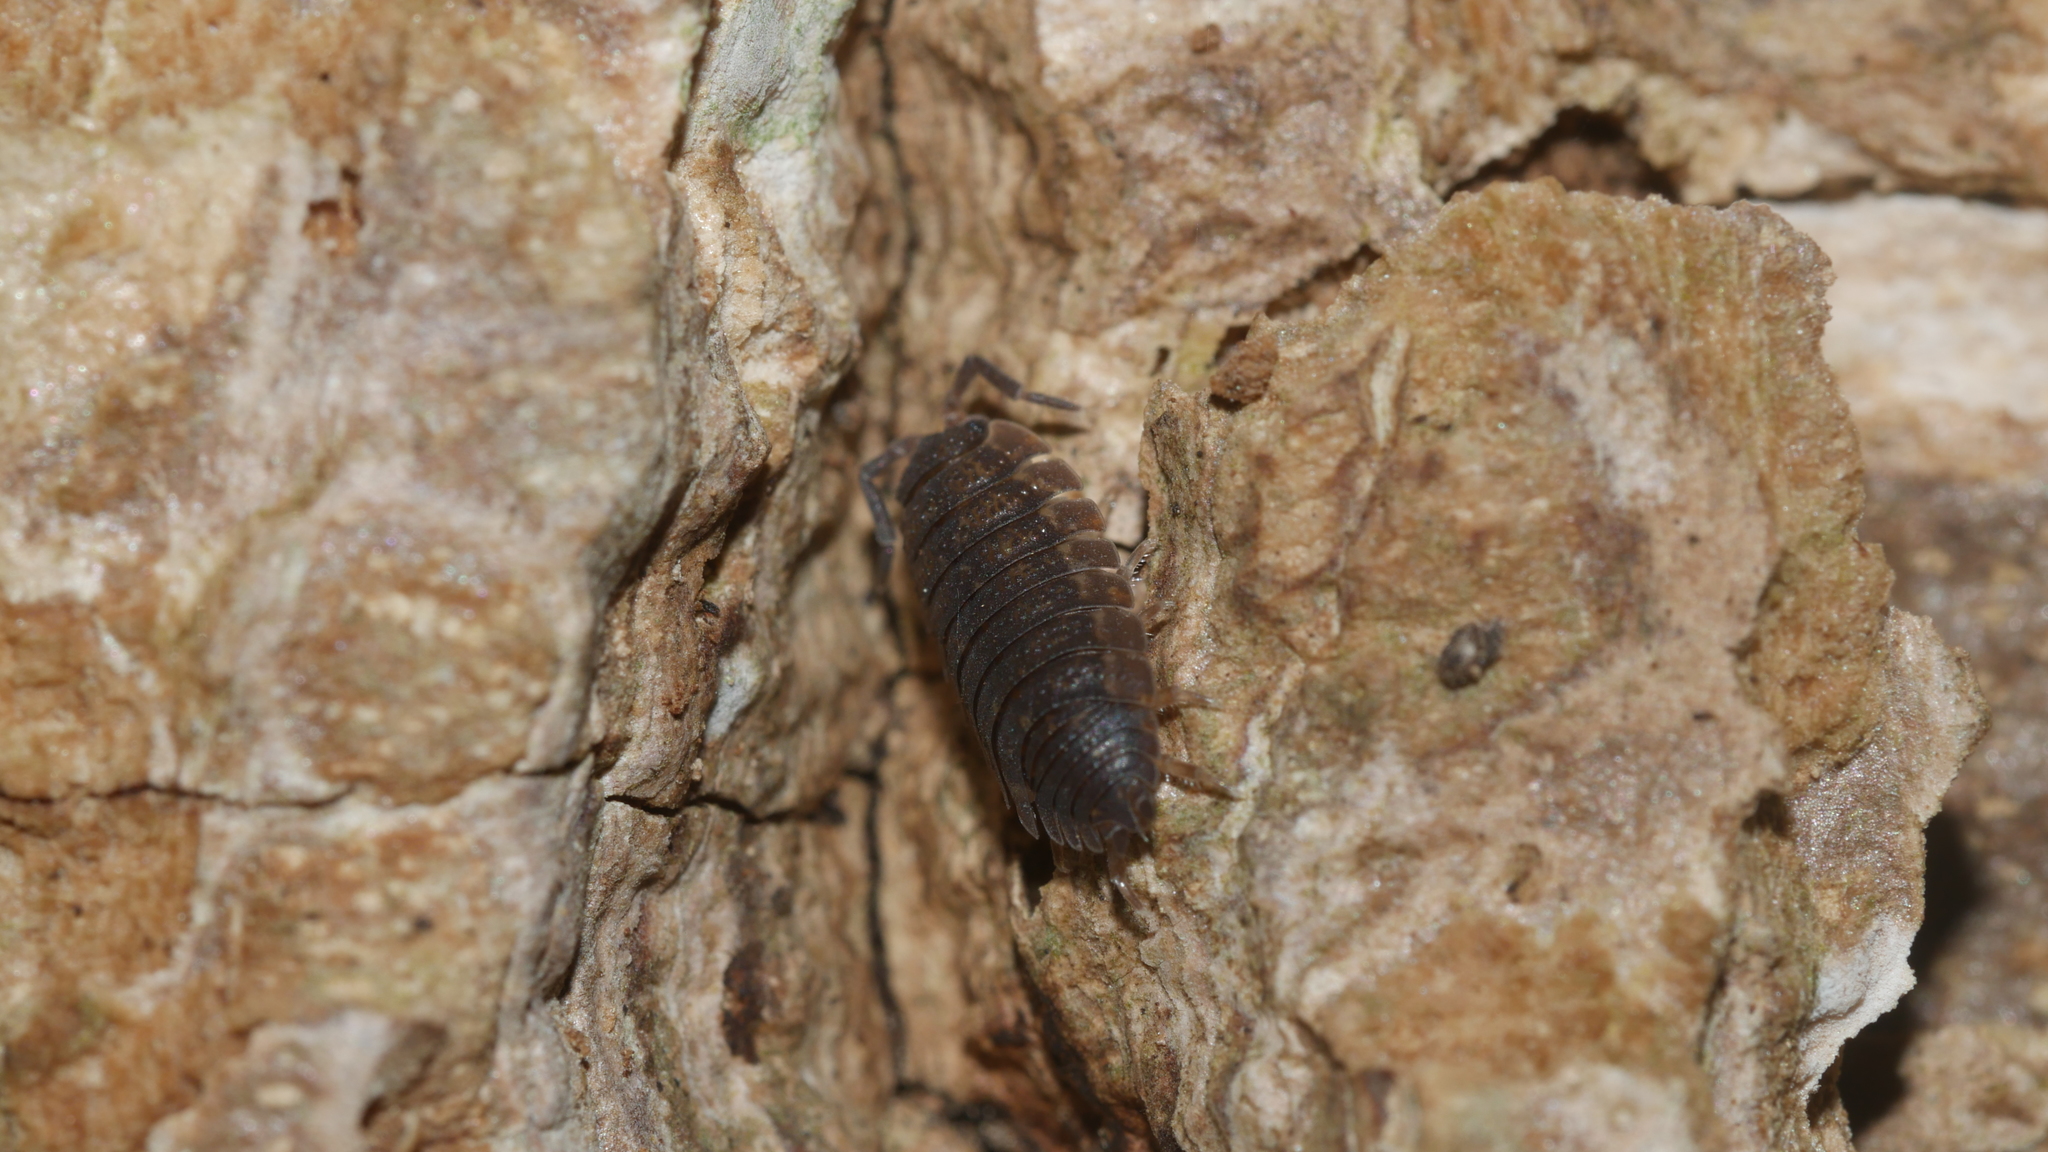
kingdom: Animalia
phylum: Arthropoda
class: Malacostraca
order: Isopoda
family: Porcellionidae
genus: Porcellio
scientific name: Porcellio scaber
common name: Common rough woodlouse
